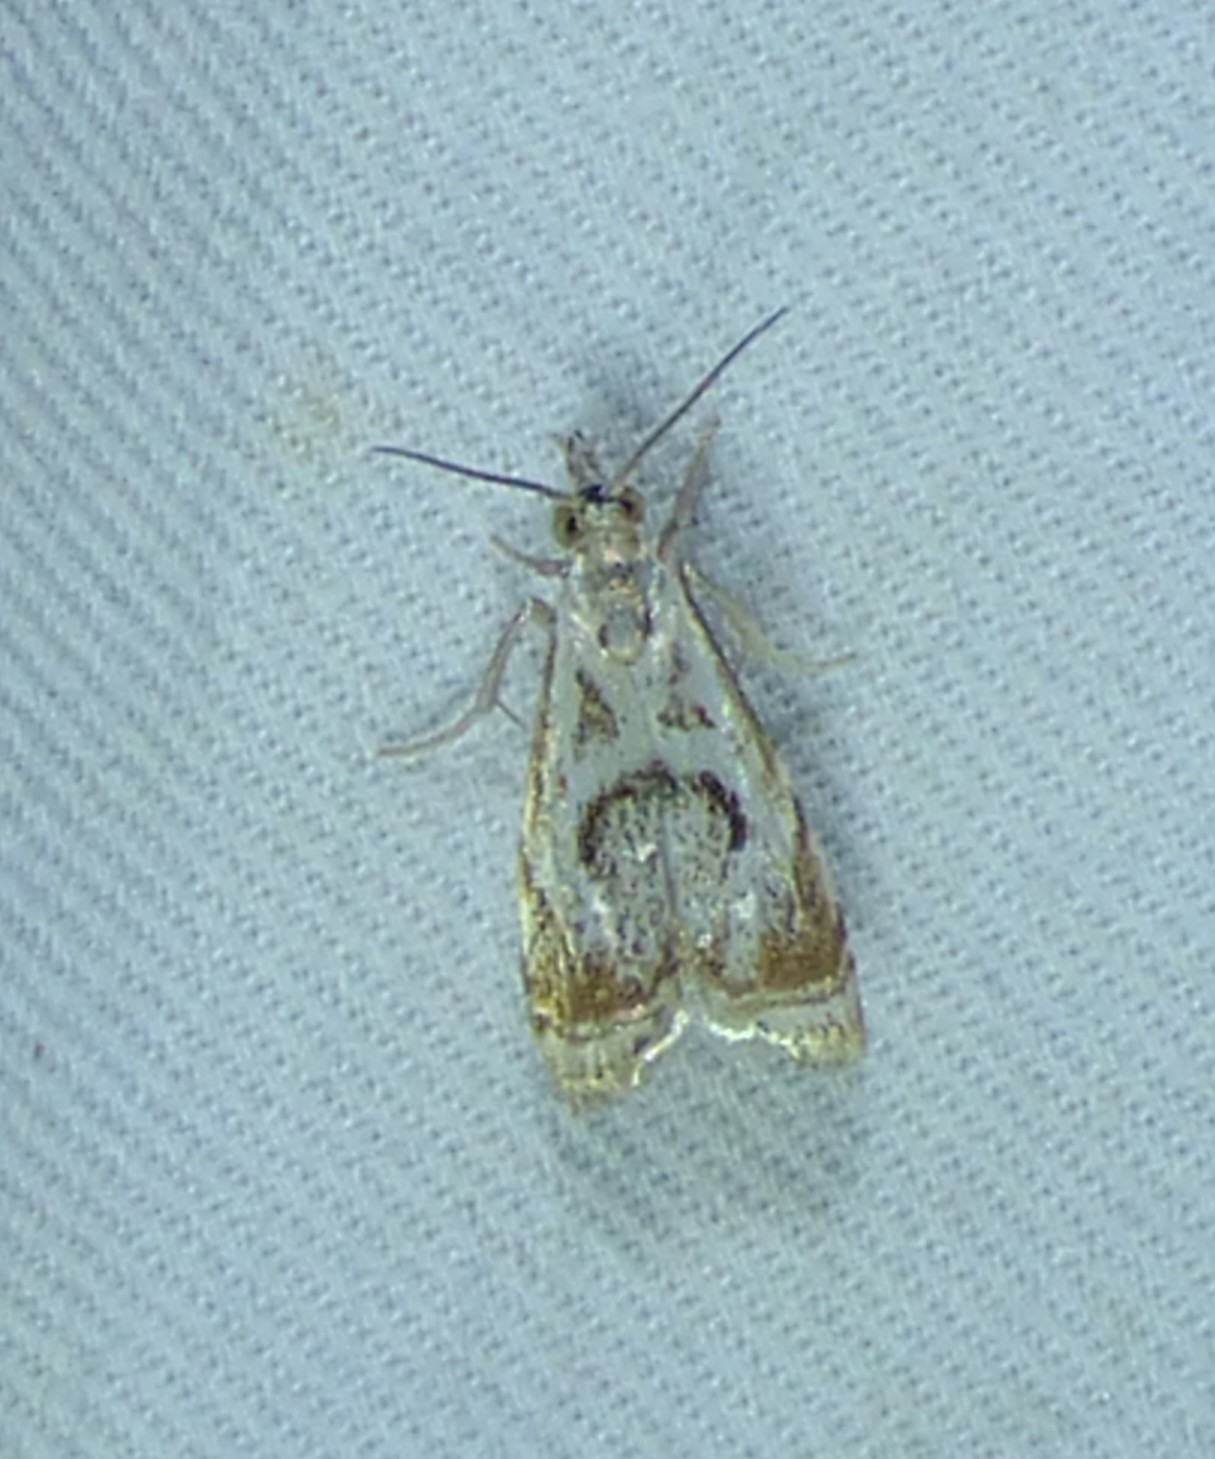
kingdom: Animalia
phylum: Arthropoda
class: Insecta
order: Lepidoptera
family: Crambidae
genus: Microcrambus
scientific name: Microcrambus elegans
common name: Elegant grass-veneer
